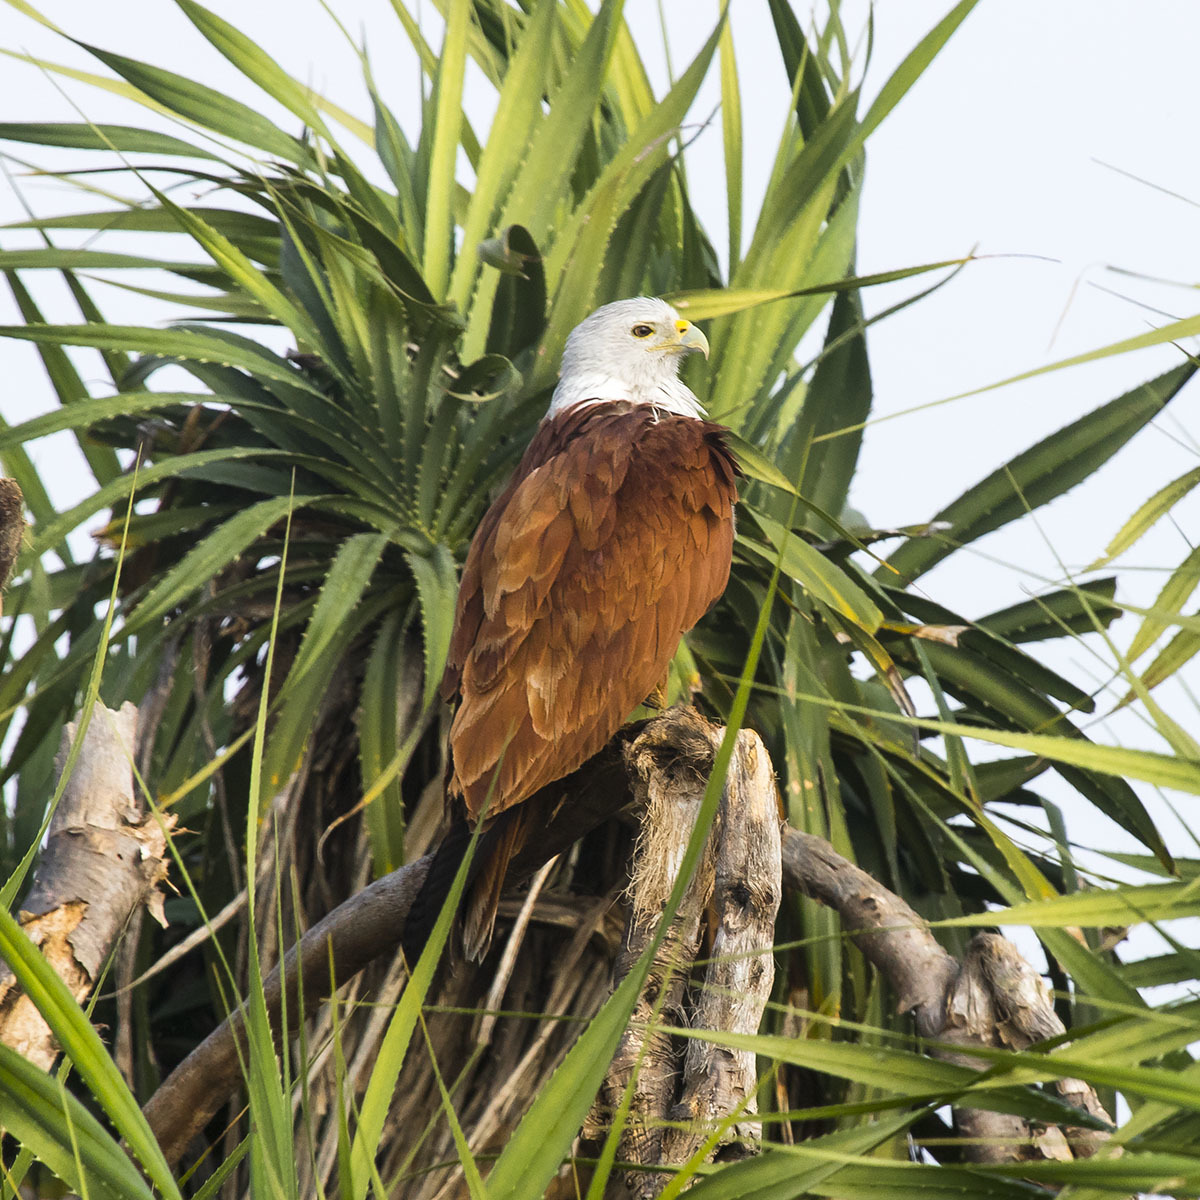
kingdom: Animalia
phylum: Chordata
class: Aves
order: Accipitriformes
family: Accipitridae
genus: Haliastur
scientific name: Haliastur indus
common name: Brahminy kite
